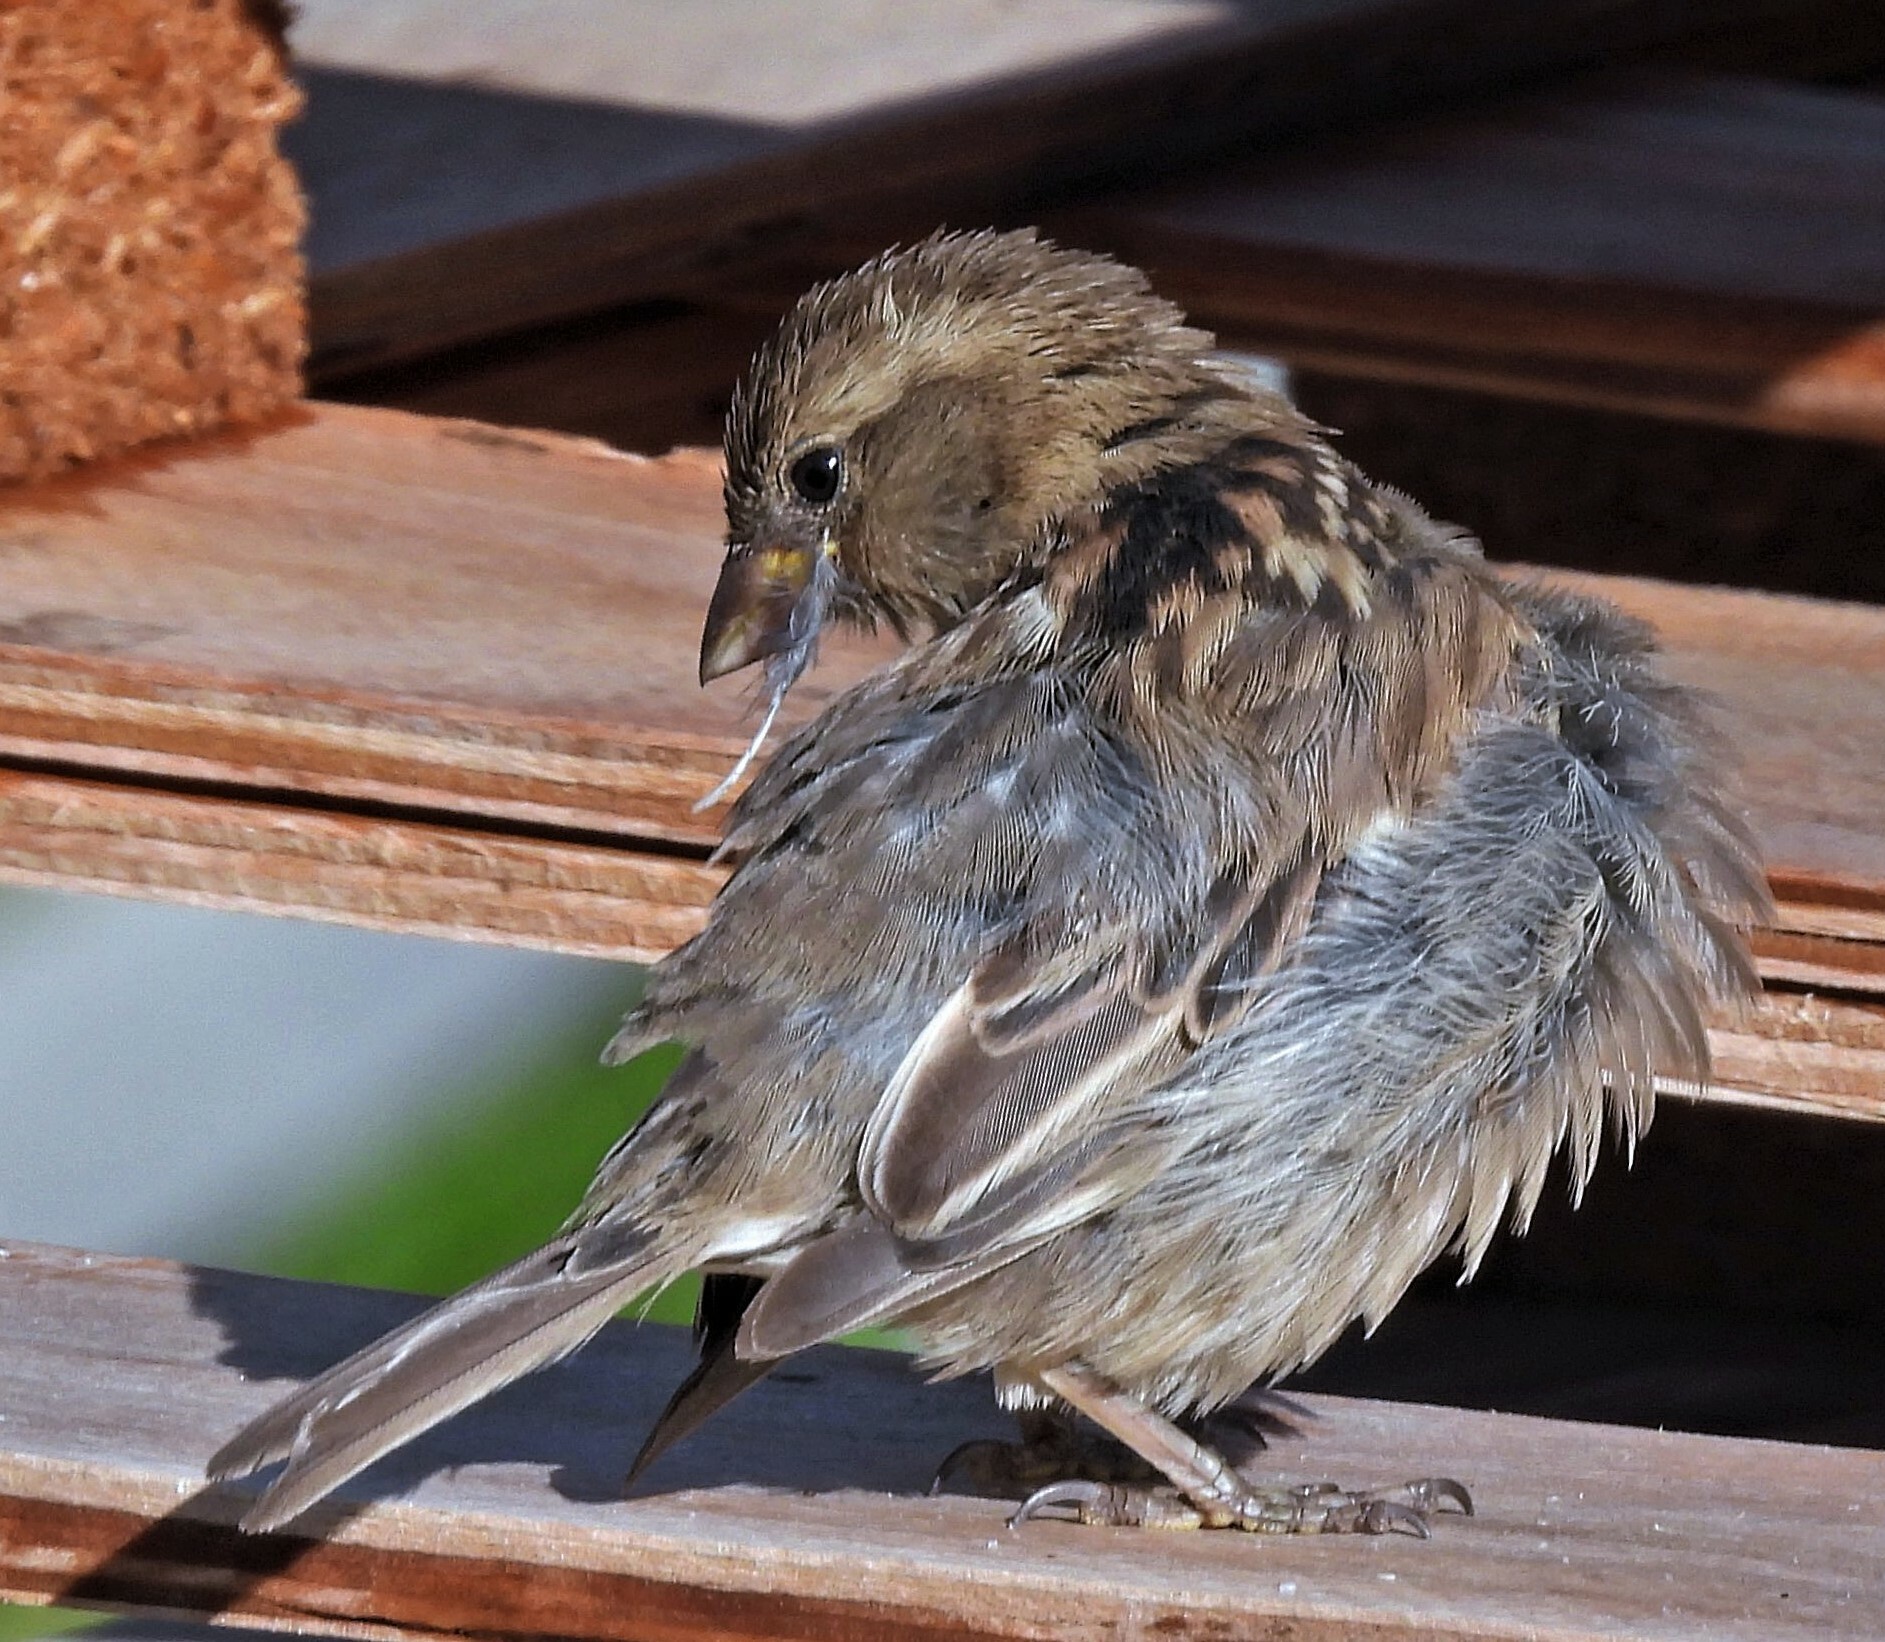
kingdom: Animalia
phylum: Chordata
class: Aves
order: Passeriformes
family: Passeridae
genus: Passer
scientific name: Passer domesticus
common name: House sparrow
